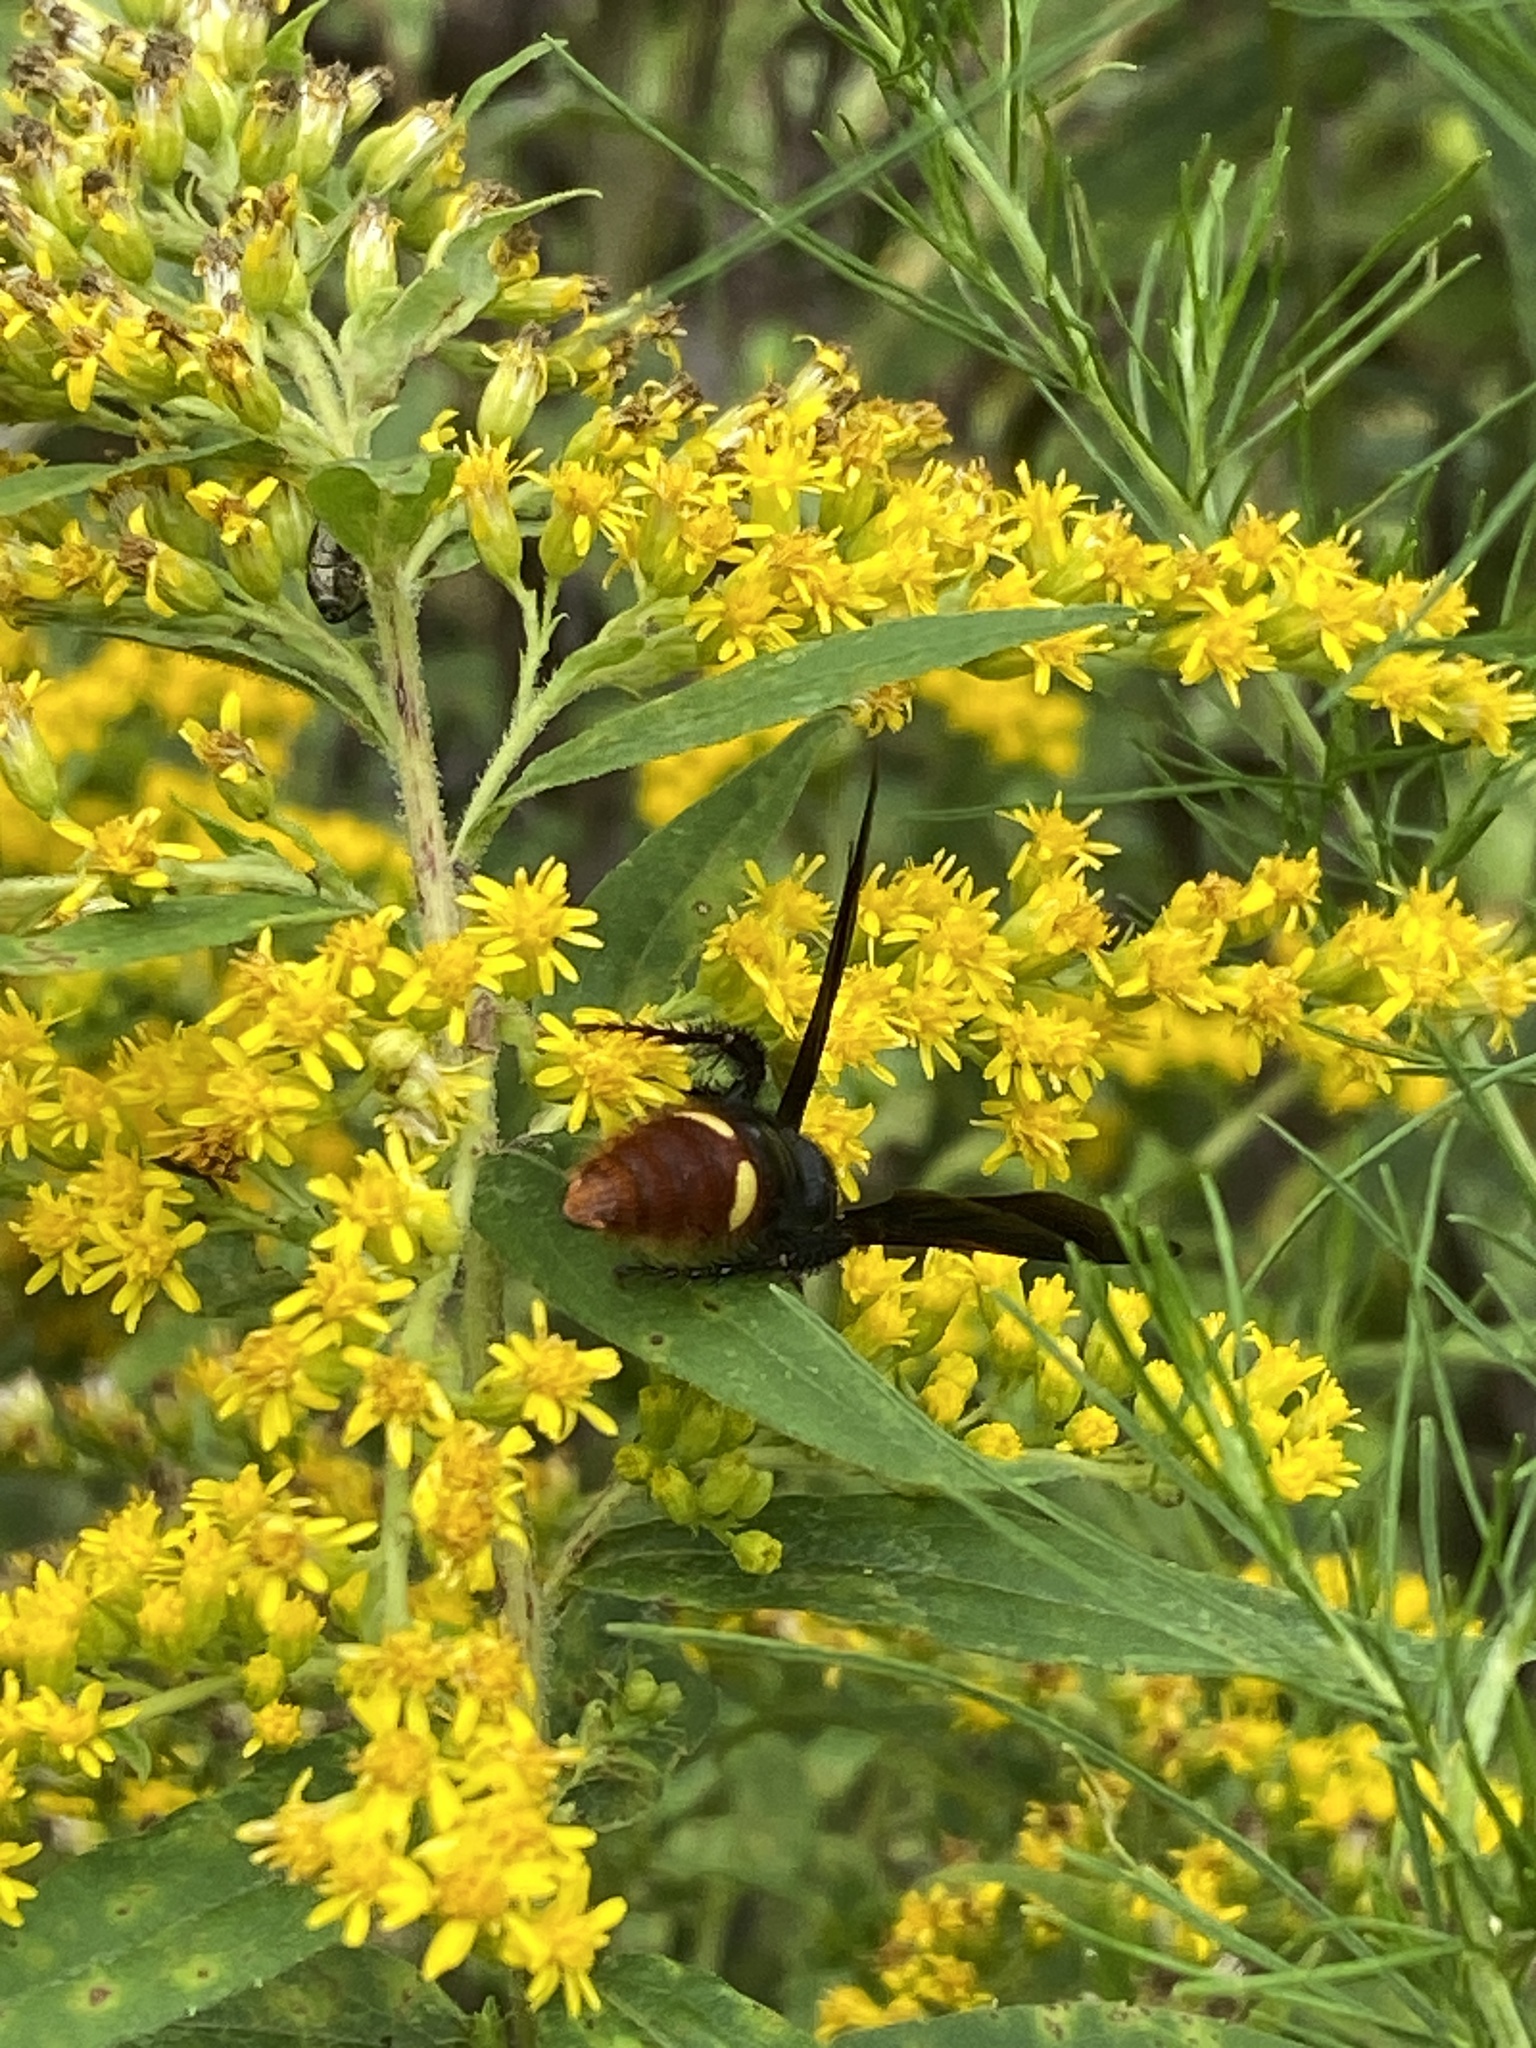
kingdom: Animalia
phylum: Arthropoda
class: Insecta
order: Hymenoptera
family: Scoliidae
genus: Scolia
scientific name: Scolia dubia
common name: Blue-winged scoliid wasp
